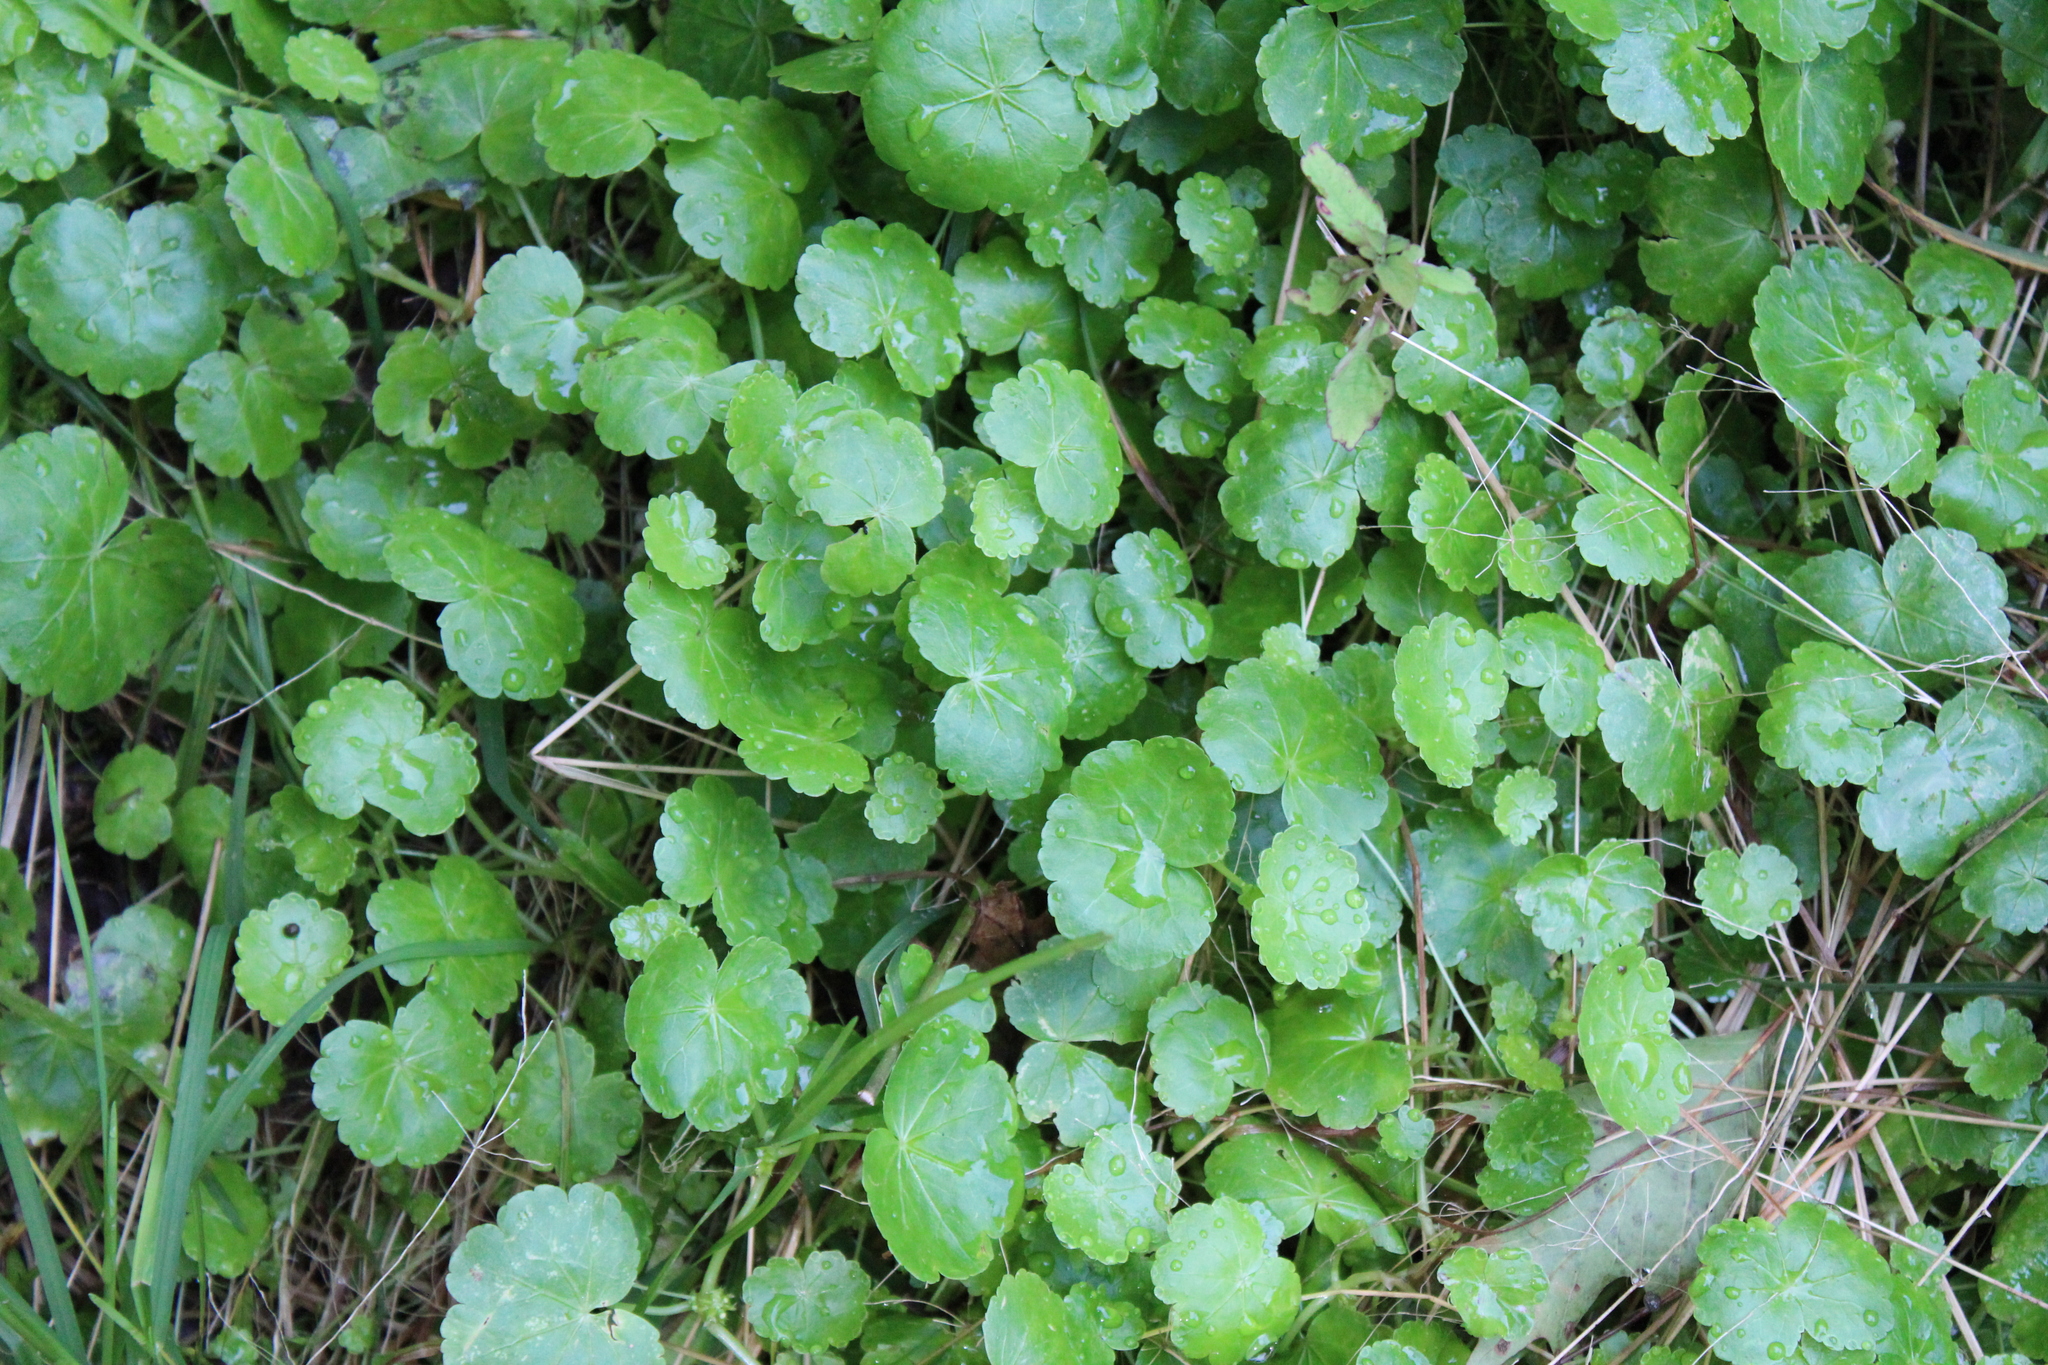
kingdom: Plantae
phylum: Tracheophyta
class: Magnoliopsida
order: Apiales
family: Araliaceae
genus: Hydrocotyle
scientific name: Hydrocotyle americana
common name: American water-pennywort
